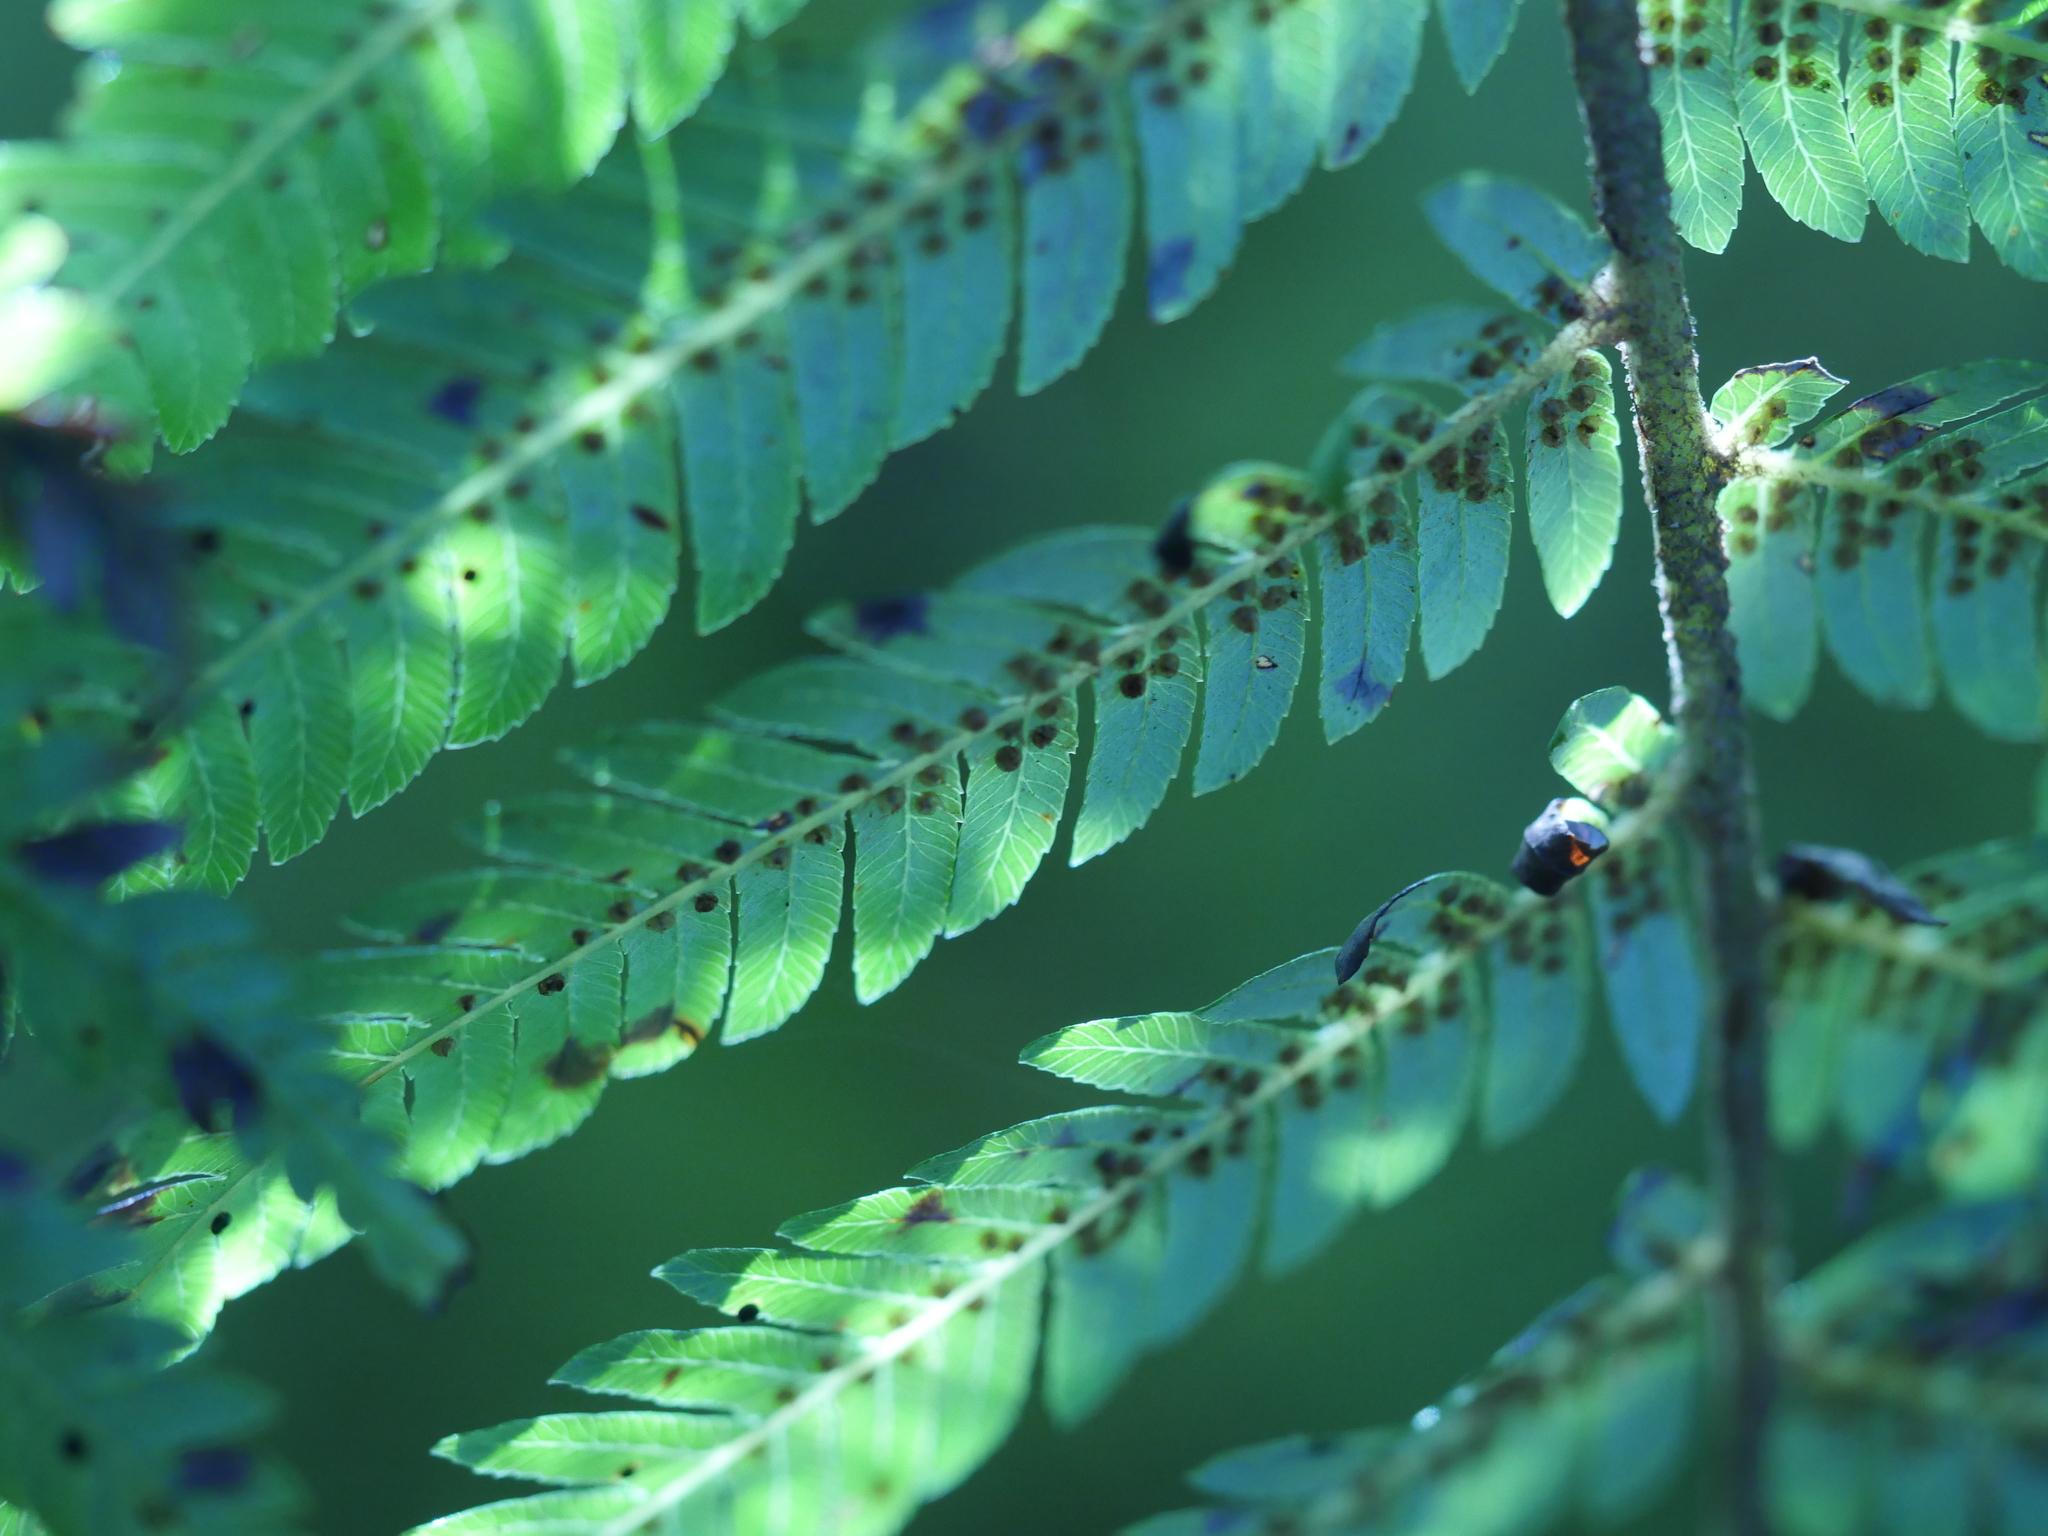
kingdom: Plantae
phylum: Tracheophyta
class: Polypodiopsida
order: Cyatheales
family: Cyatheaceae
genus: Alsophila
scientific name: Alsophila dealbata
